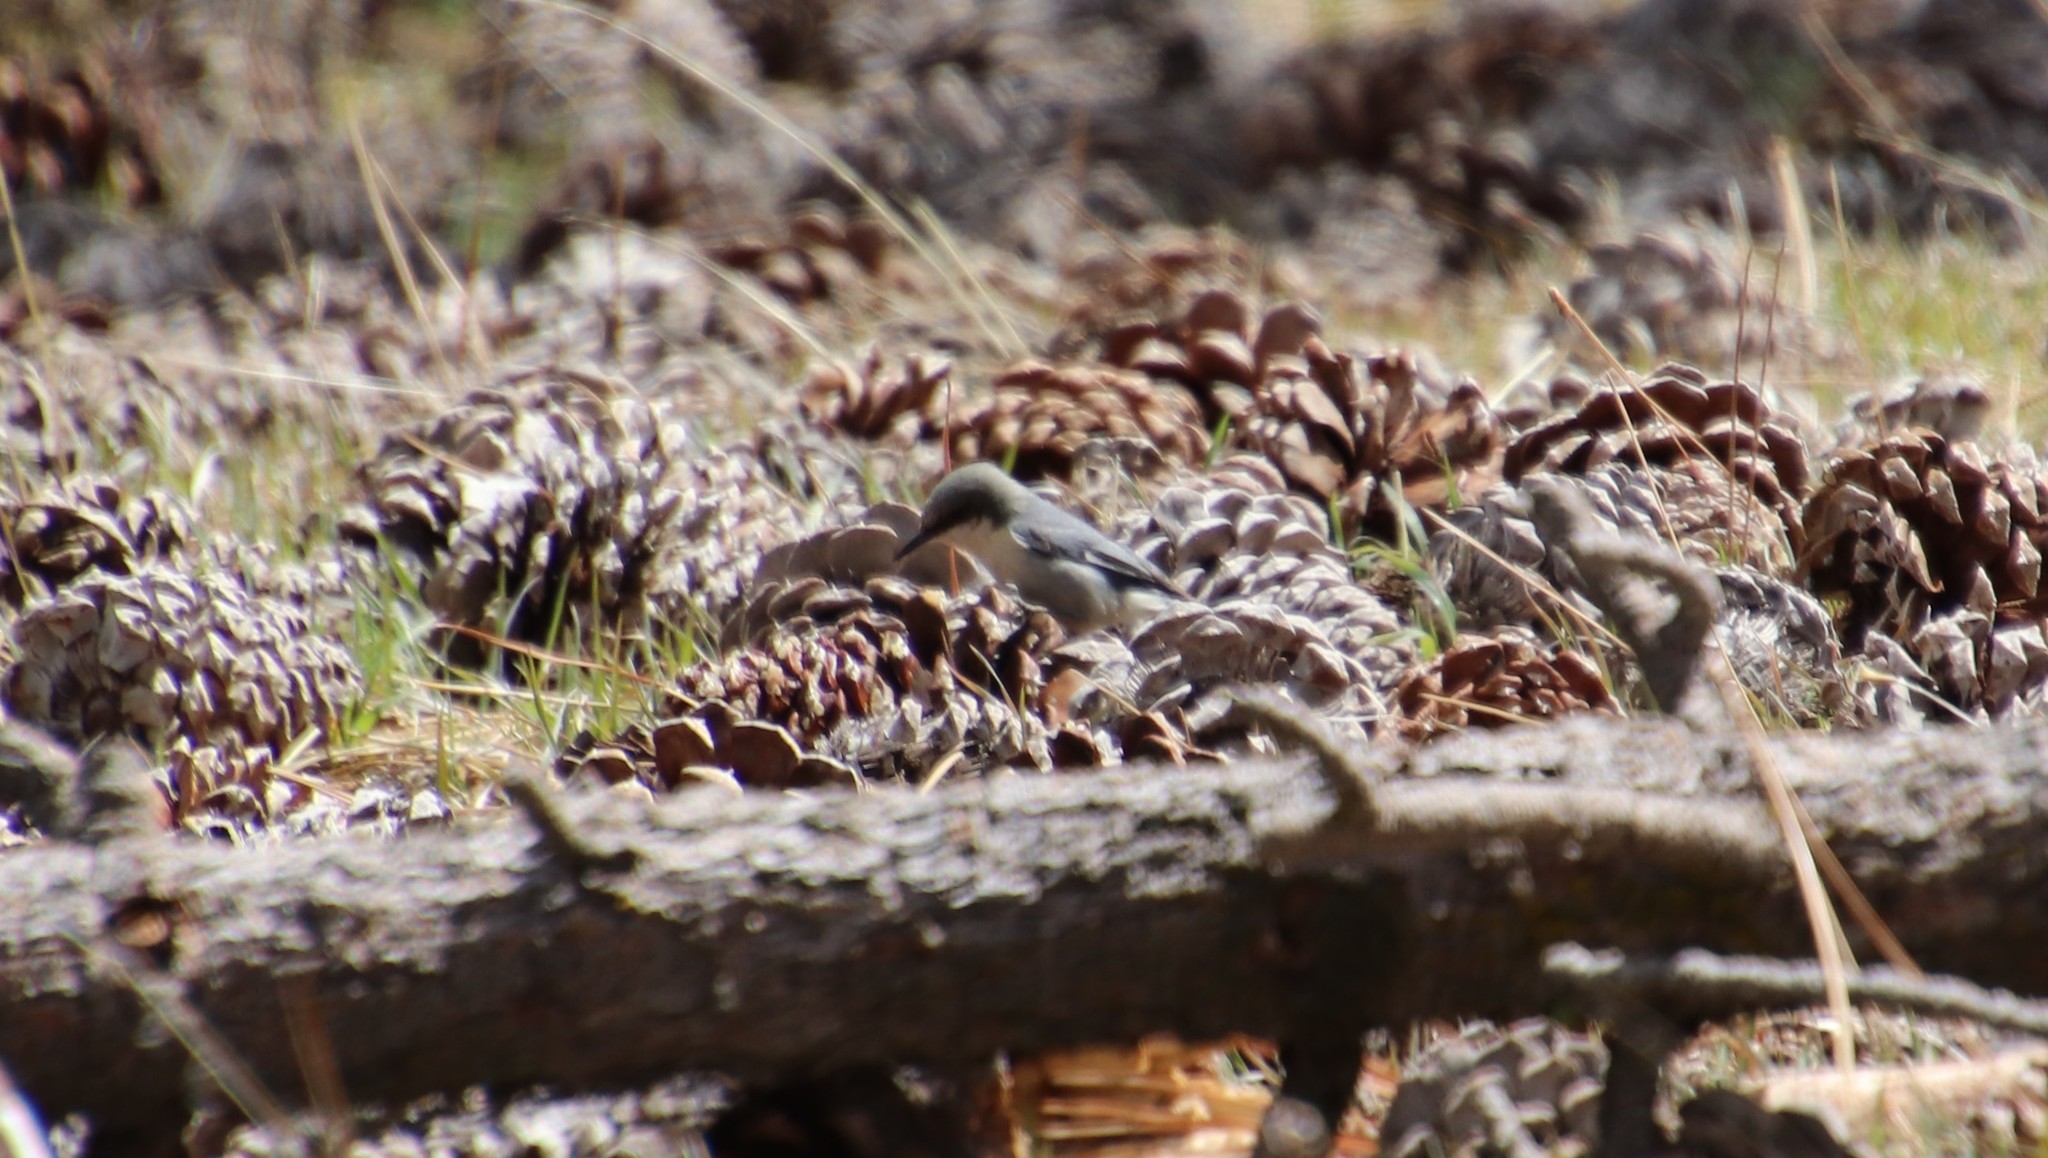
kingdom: Animalia
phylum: Chordata
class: Aves
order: Passeriformes
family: Sittidae
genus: Sitta
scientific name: Sitta pygmaea
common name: Pygmy nuthatch
